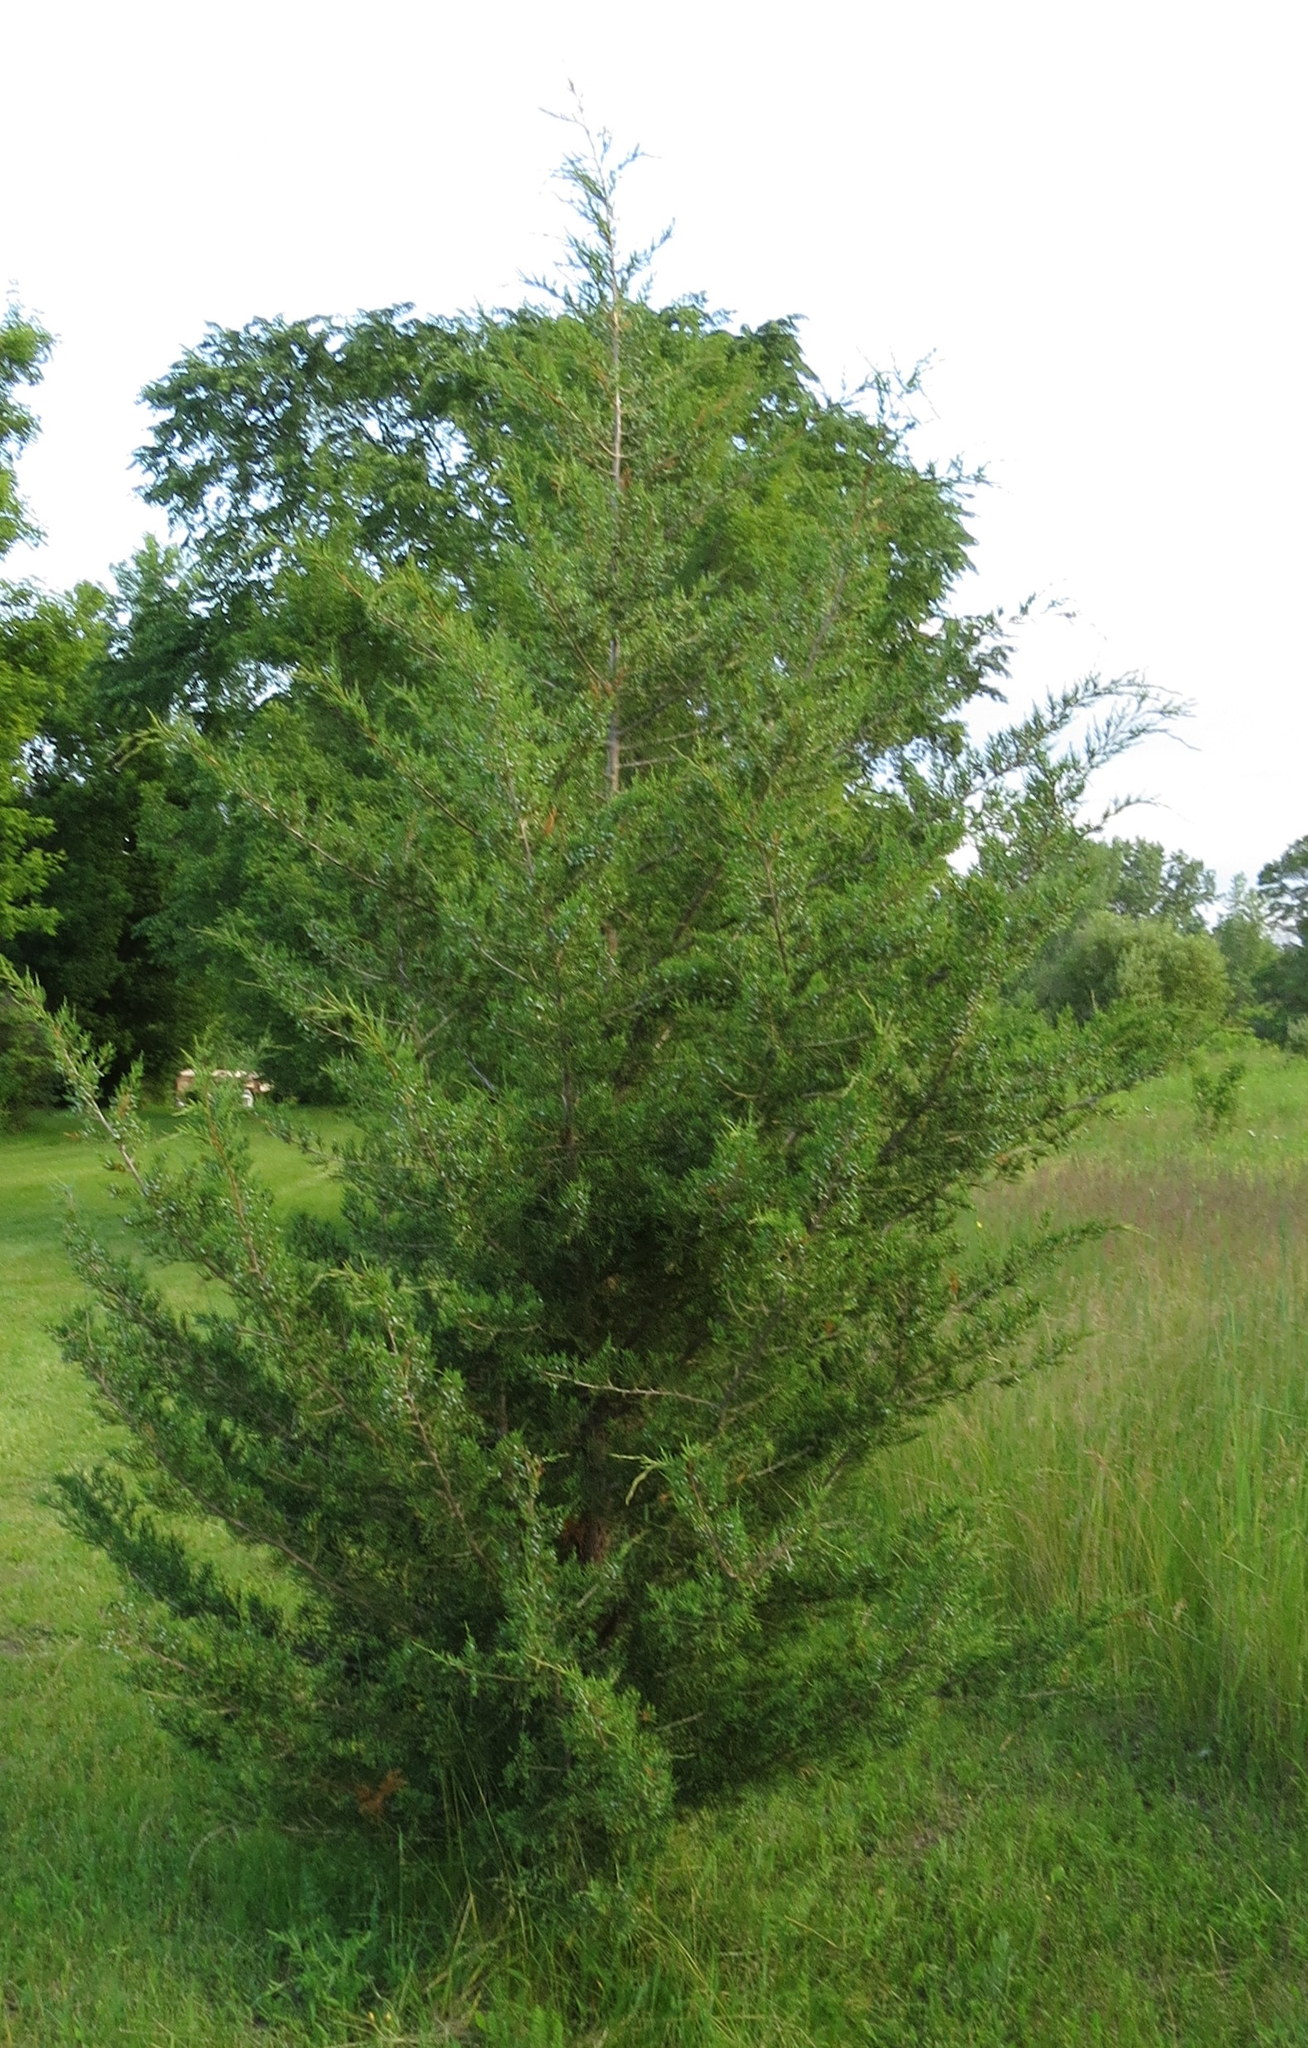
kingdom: Plantae
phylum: Tracheophyta
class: Pinopsida
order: Pinales
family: Cupressaceae
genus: Juniperus
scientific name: Juniperus virginiana
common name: Red juniper
